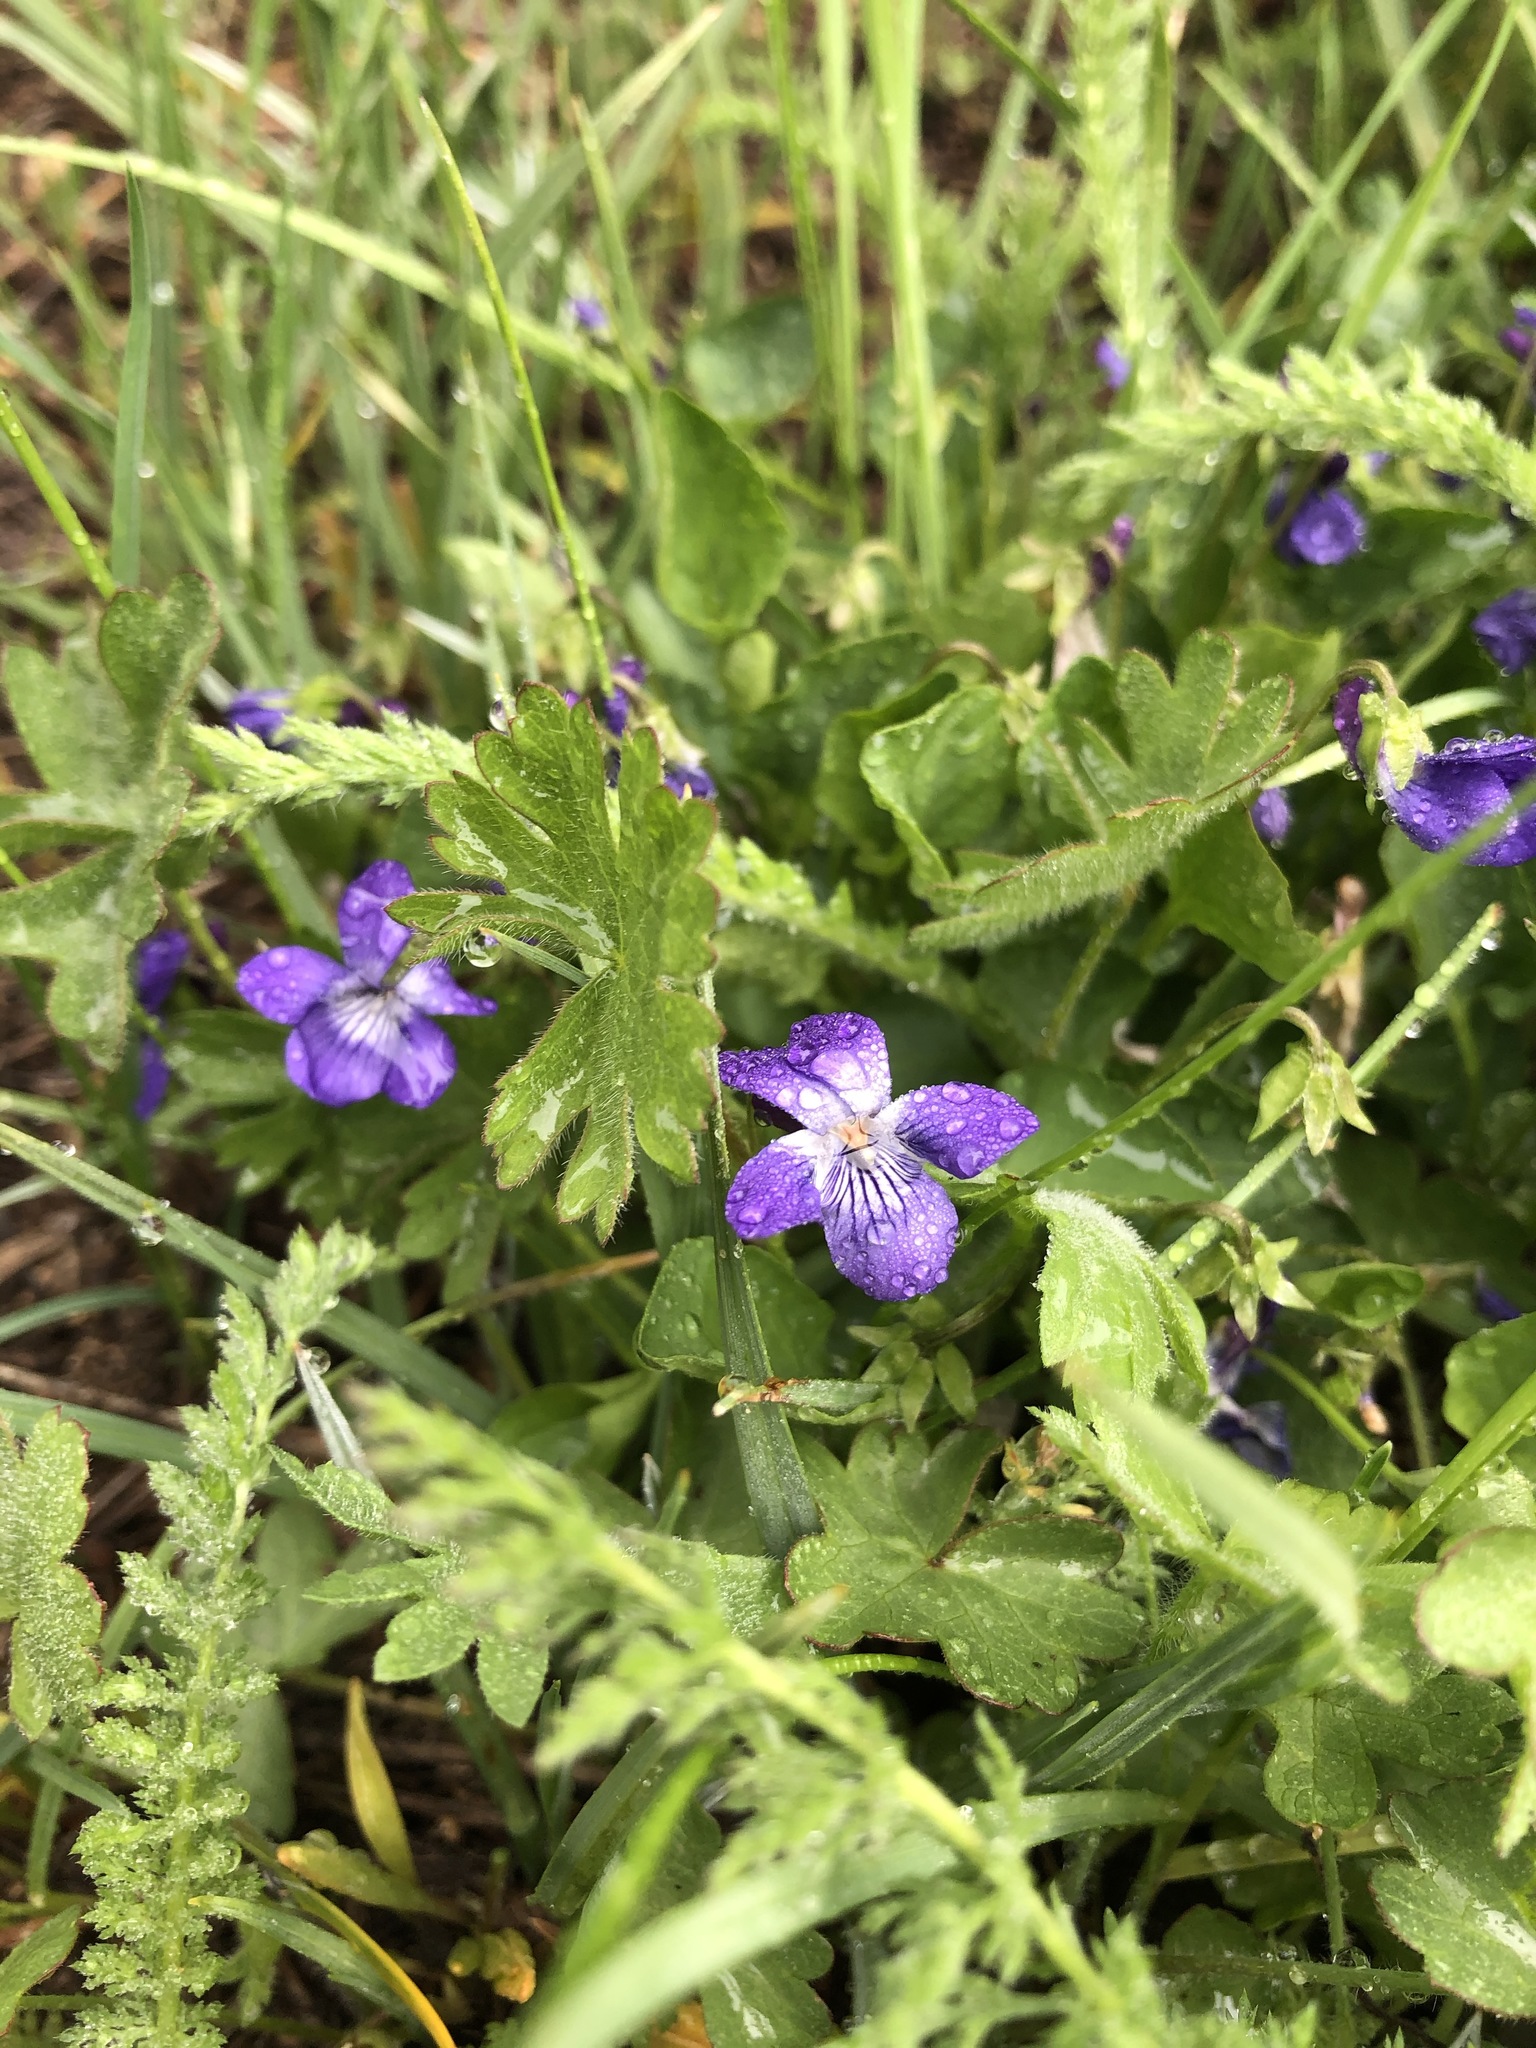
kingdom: Plantae
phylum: Tracheophyta
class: Magnoliopsida
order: Malpighiales
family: Violaceae
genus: Viola
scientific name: Viola adunca
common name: Sand violet
